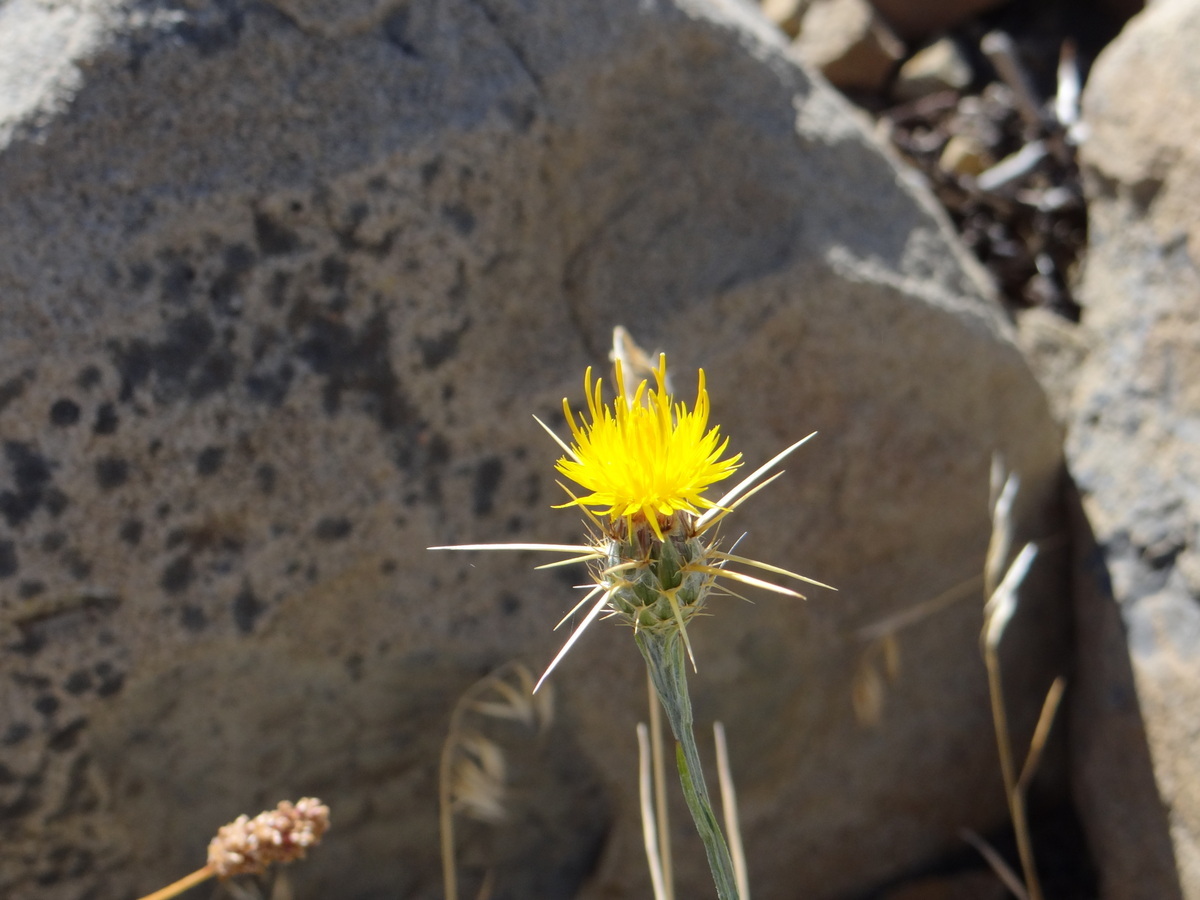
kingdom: Plantae
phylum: Tracheophyta
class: Magnoliopsida
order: Asterales
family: Asteraceae
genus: Centaurea
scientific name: Centaurea solstitialis
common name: Yellow star-thistle
